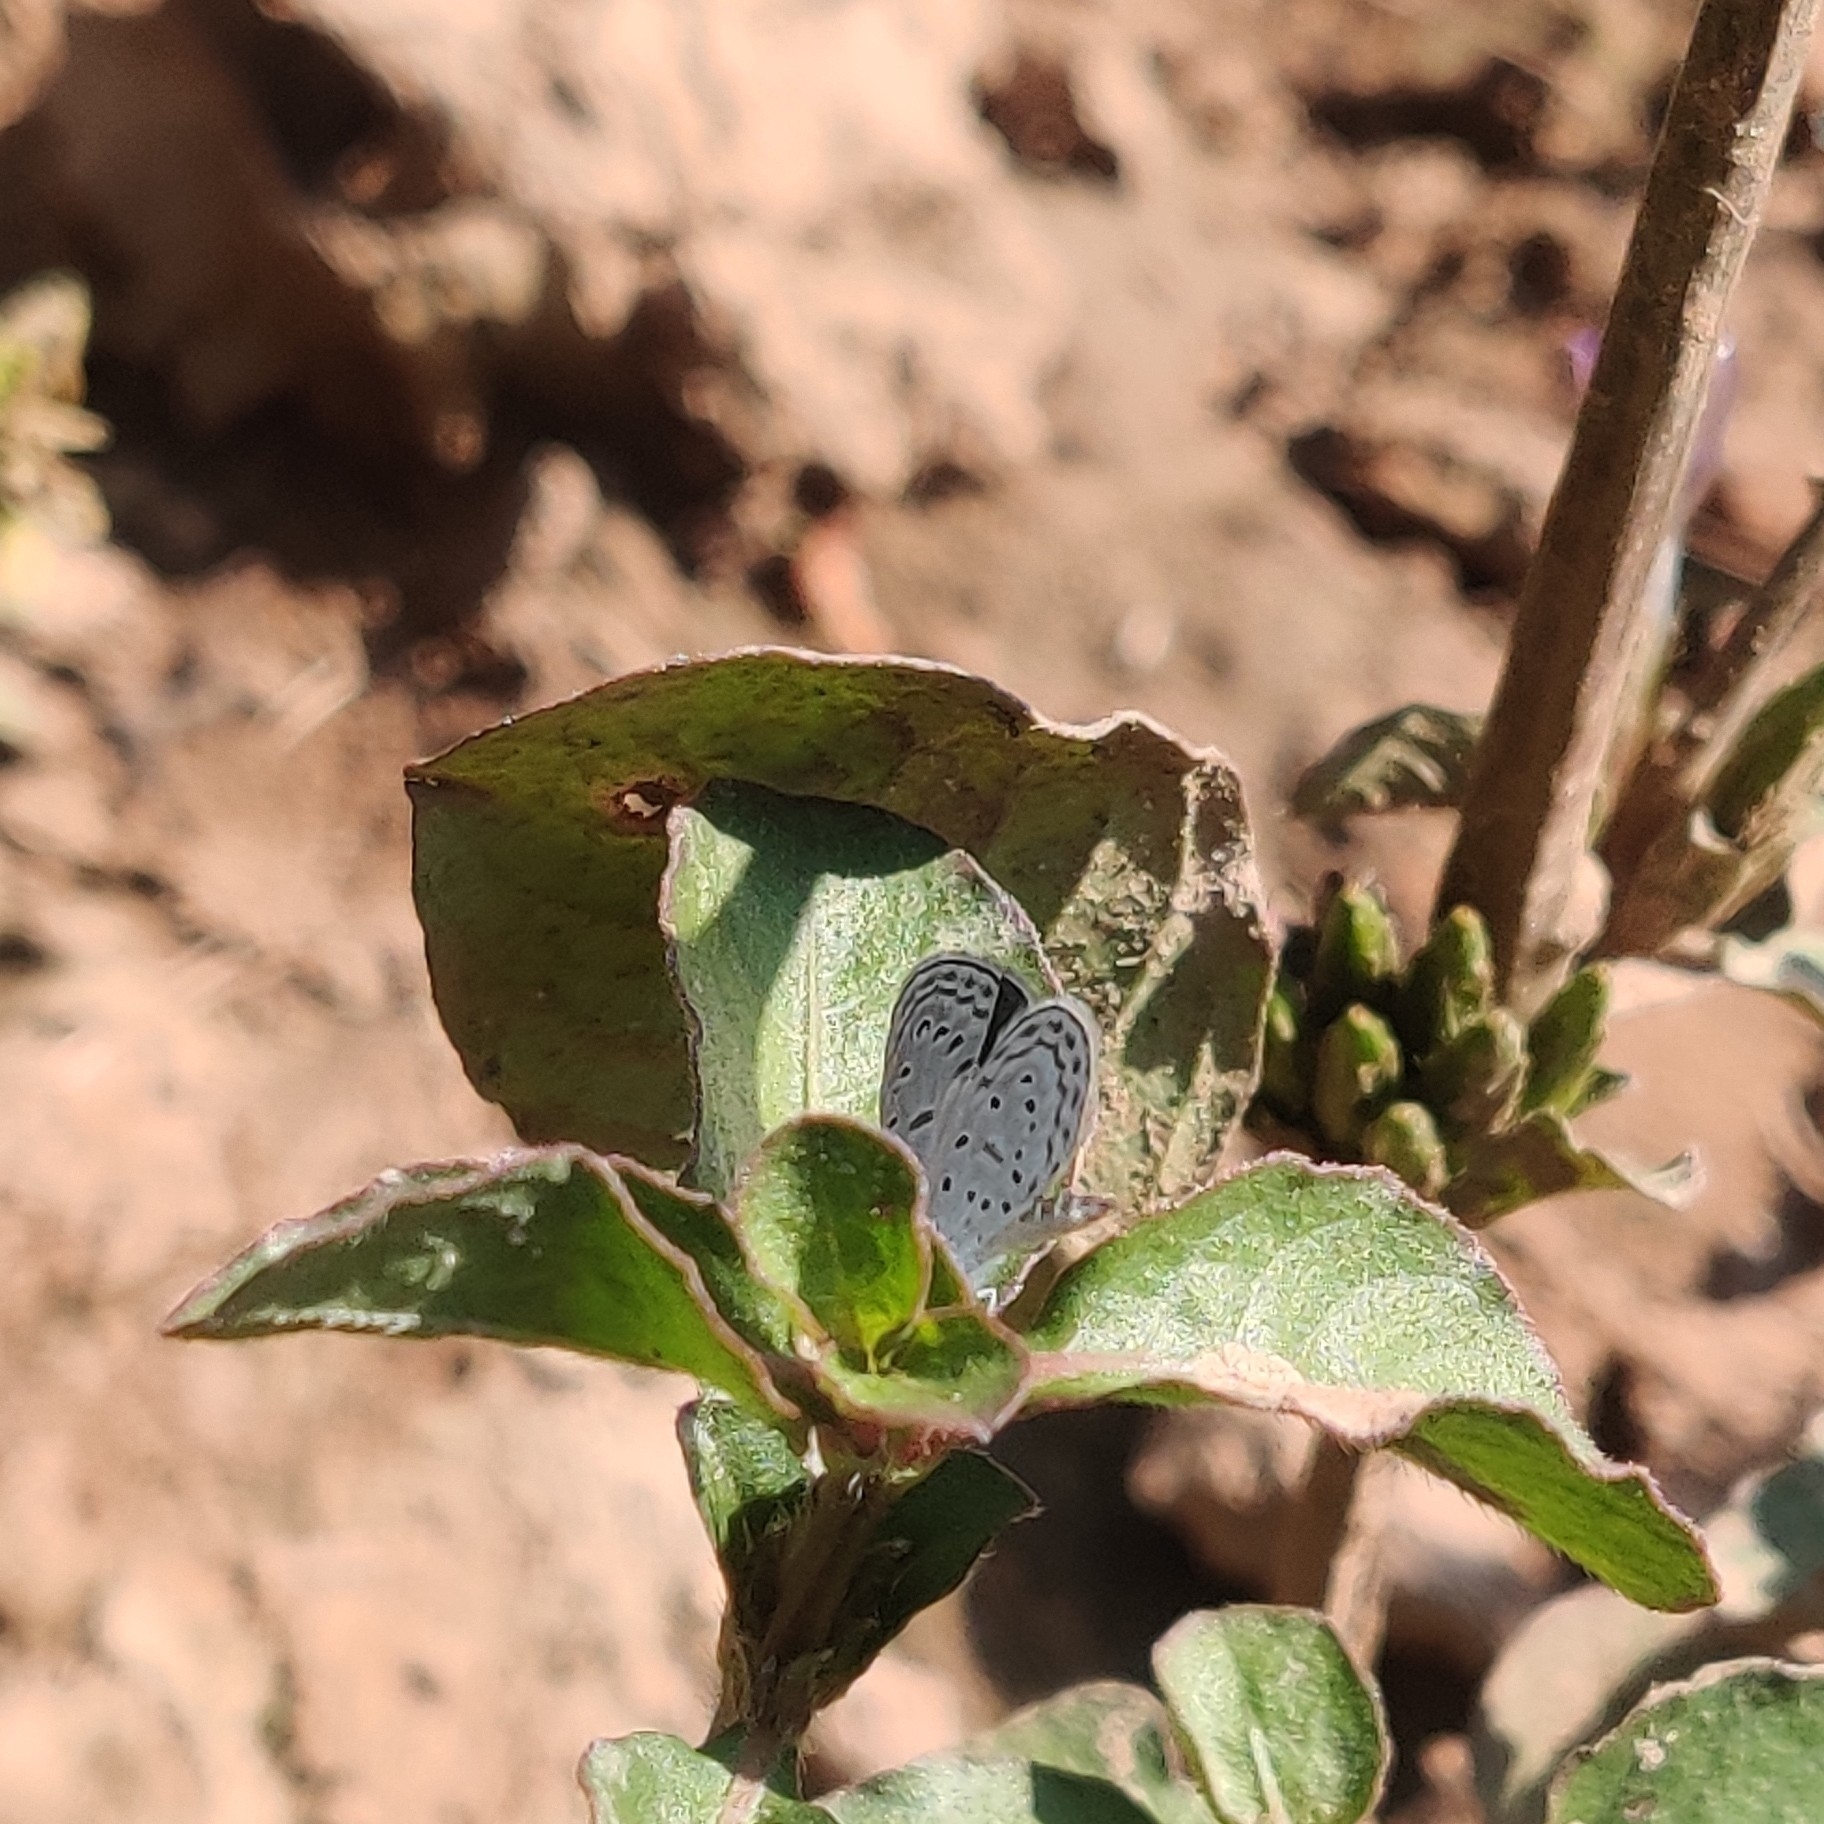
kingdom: Animalia
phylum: Arthropoda
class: Insecta
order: Lepidoptera
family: Lycaenidae
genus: Zizula
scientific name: Zizula hylax
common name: Gaika blue
